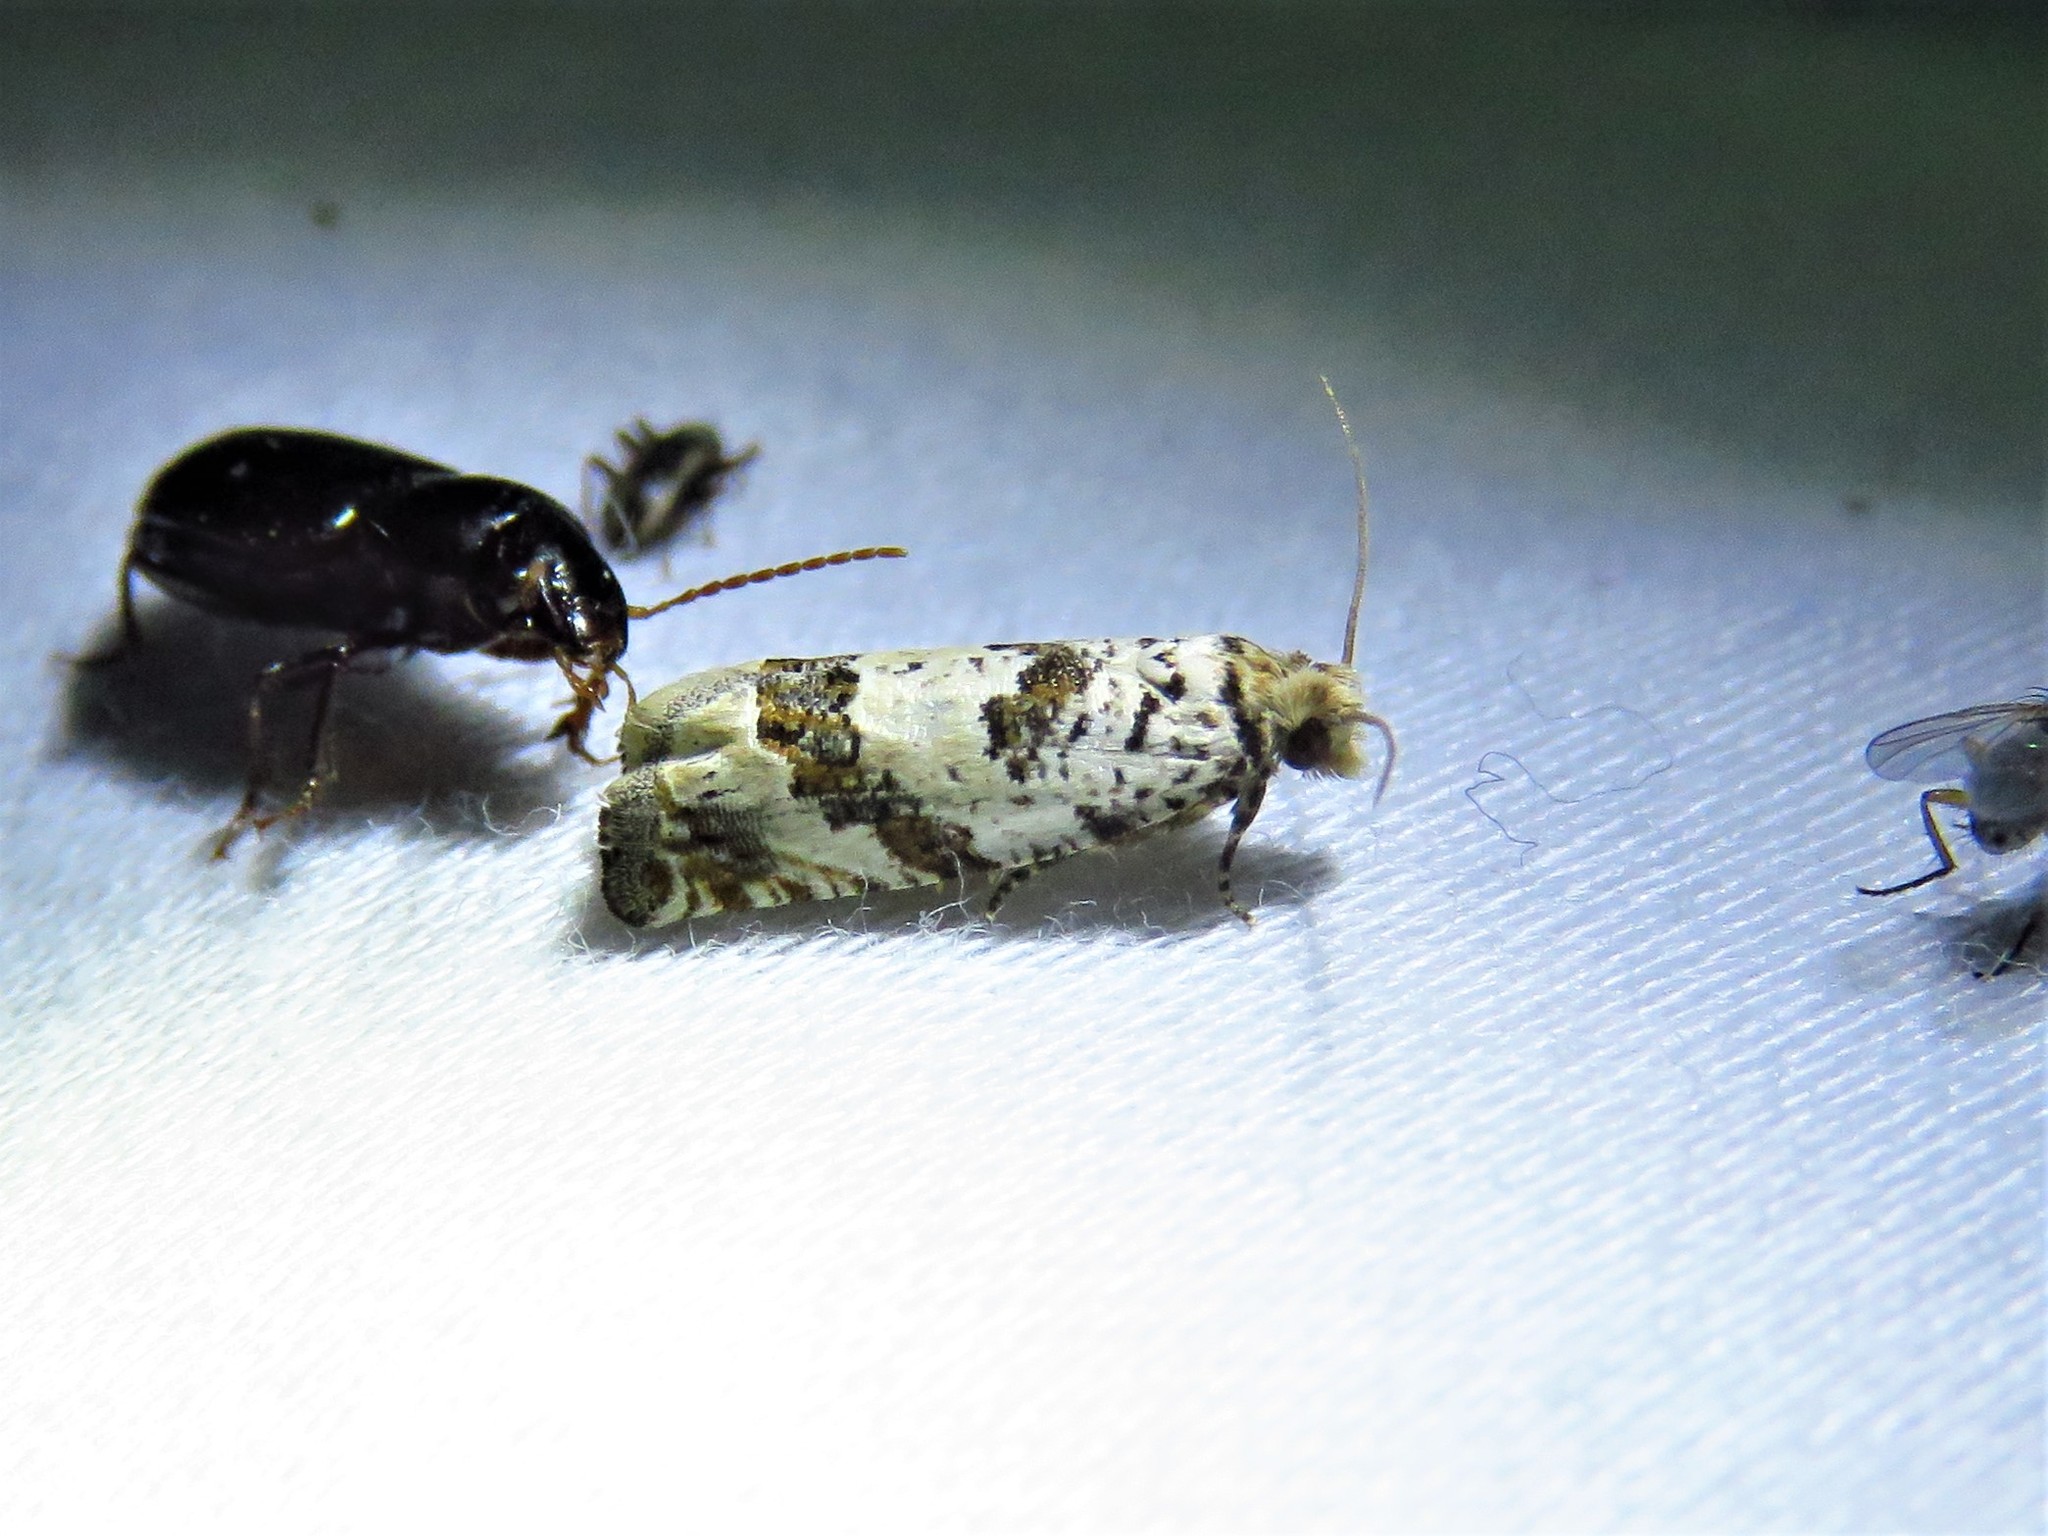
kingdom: Animalia
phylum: Arthropoda
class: Insecta
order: Lepidoptera
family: Tortricidae
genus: Pelochrista
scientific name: Pelochrista matutina
